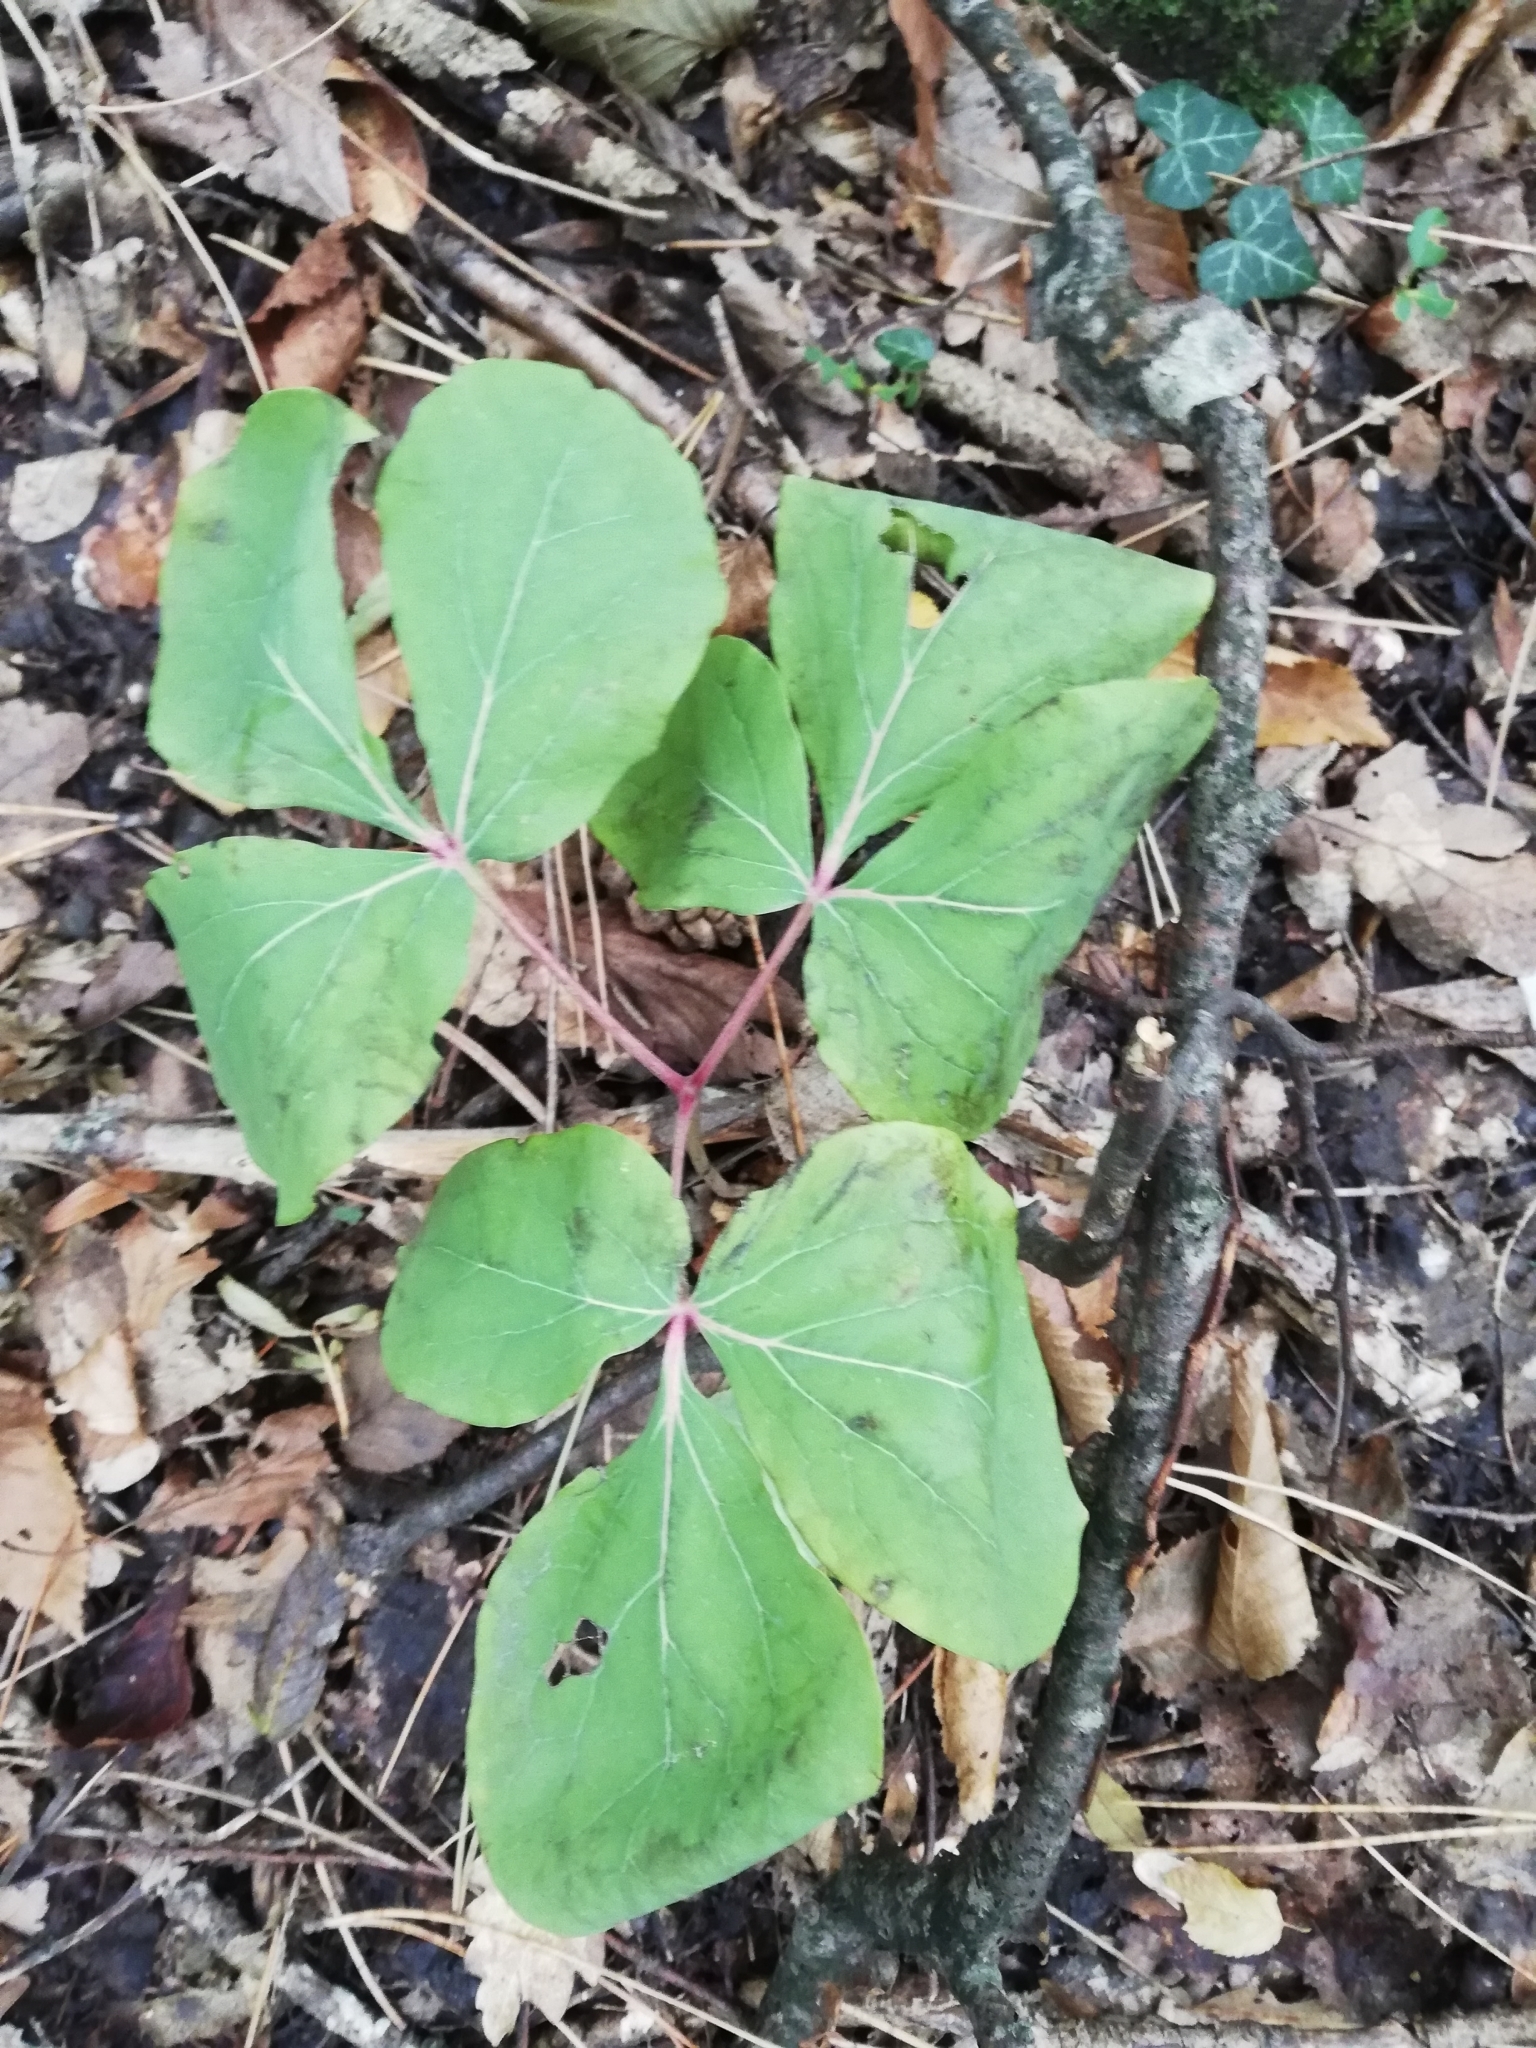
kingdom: Plantae
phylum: Tracheophyta
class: Magnoliopsida
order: Saxifragales
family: Paeoniaceae
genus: Paeonia
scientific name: Paeonia daurica
